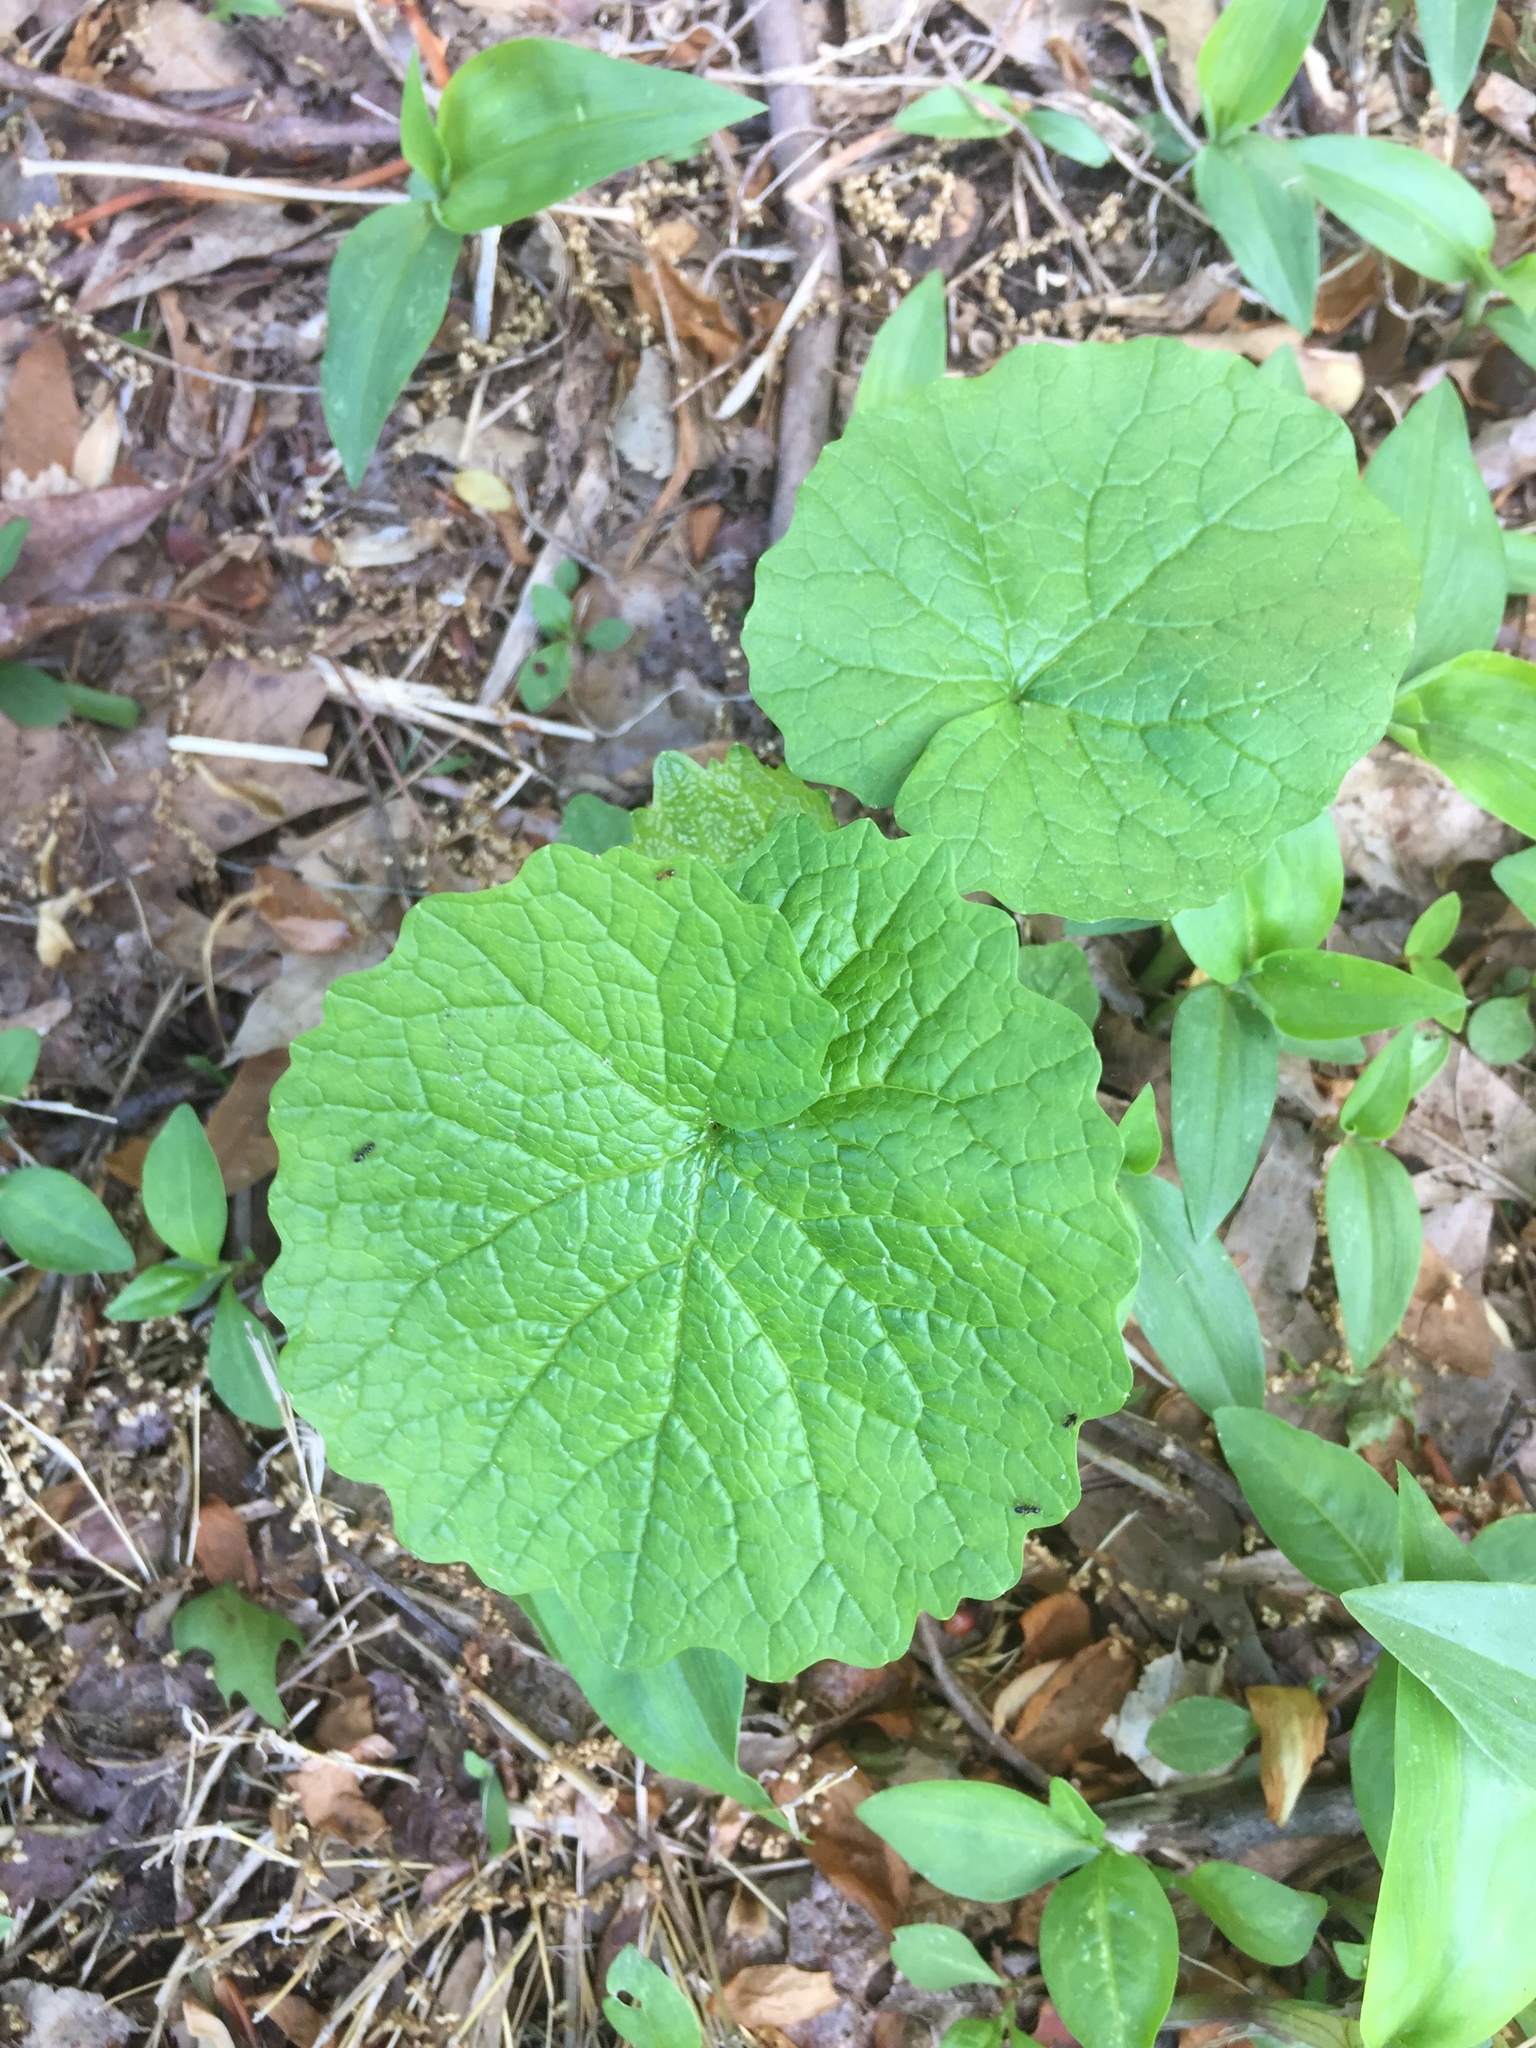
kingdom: Plantae
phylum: Tracheophyta
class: Magnoliopsida
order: Brassicales
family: Brassicaceae
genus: Alliaria
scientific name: Alliaria petiolata
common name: Garlic mustard
